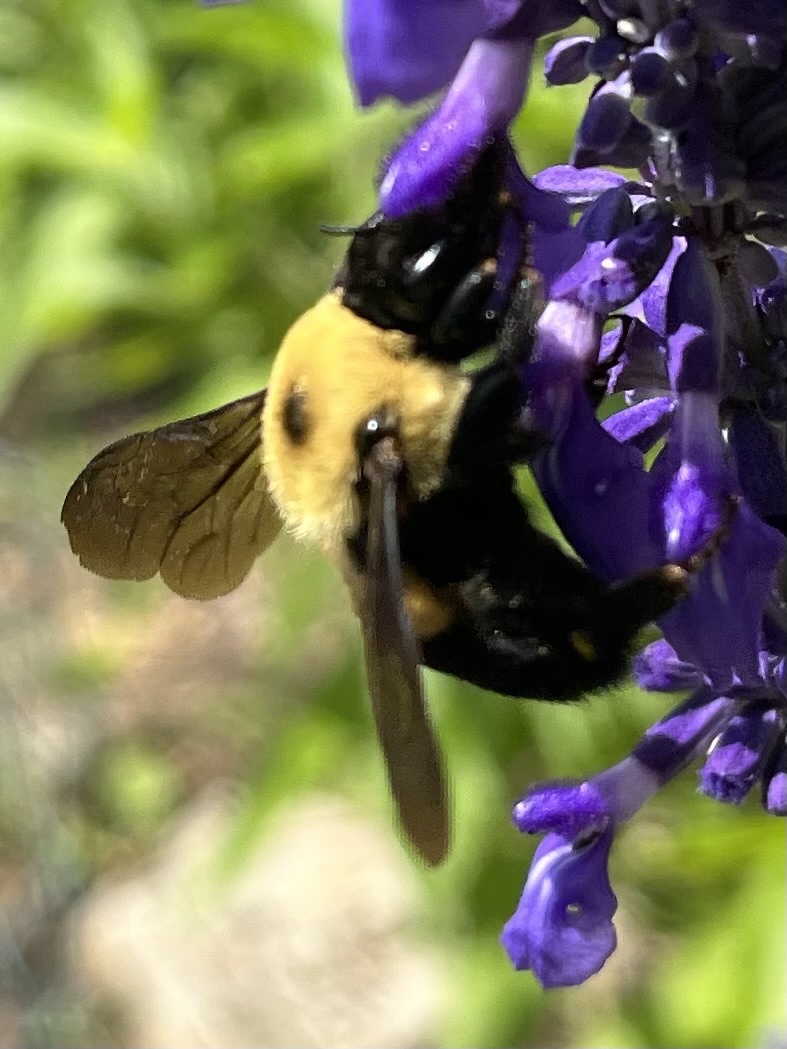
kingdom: Animalia
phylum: Arthropoda
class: Insecta
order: Hymenoptera
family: Apidae
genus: Bombus
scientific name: Bombus griseocollis
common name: Brown-belted bumble bee
